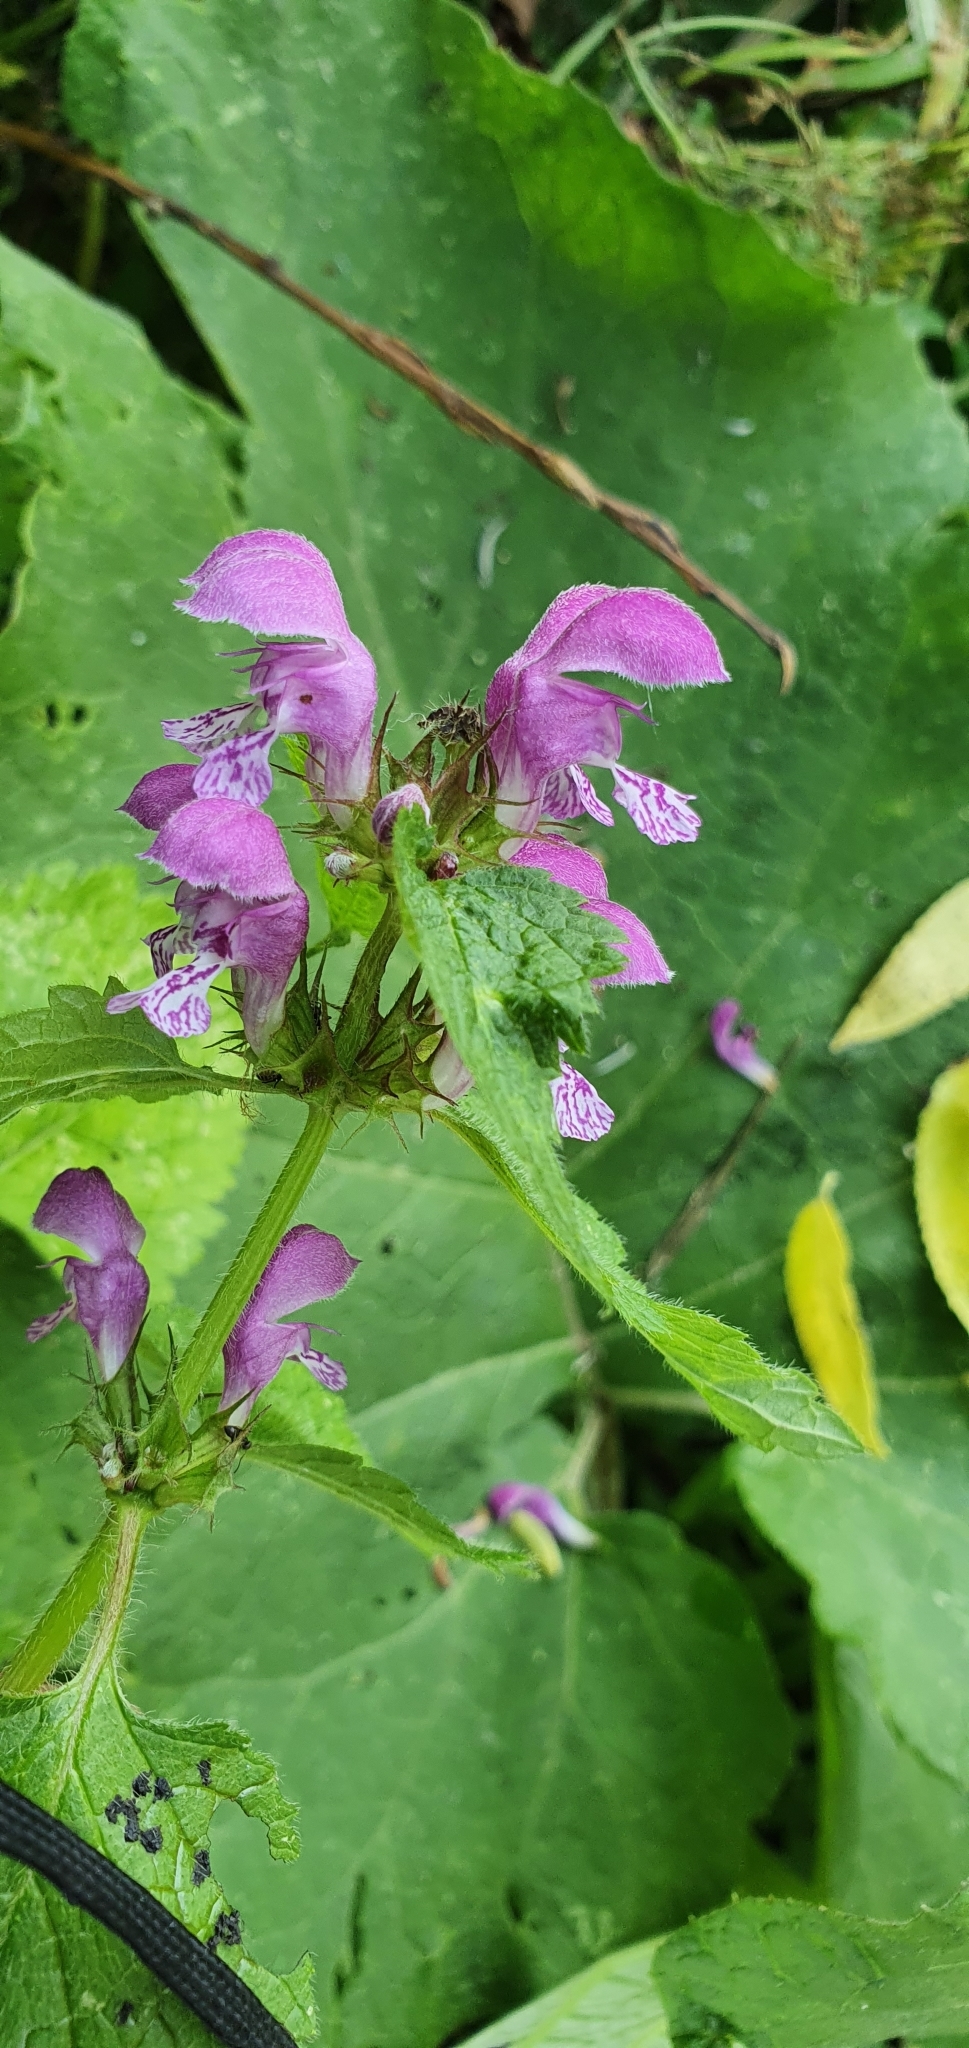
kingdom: Plantae
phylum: Tracheophyta
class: Magnoliopsida
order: Lamiales
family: Lamiaceae
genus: Lamium
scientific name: Lamium maculatum
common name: Spotted dead-nettle
